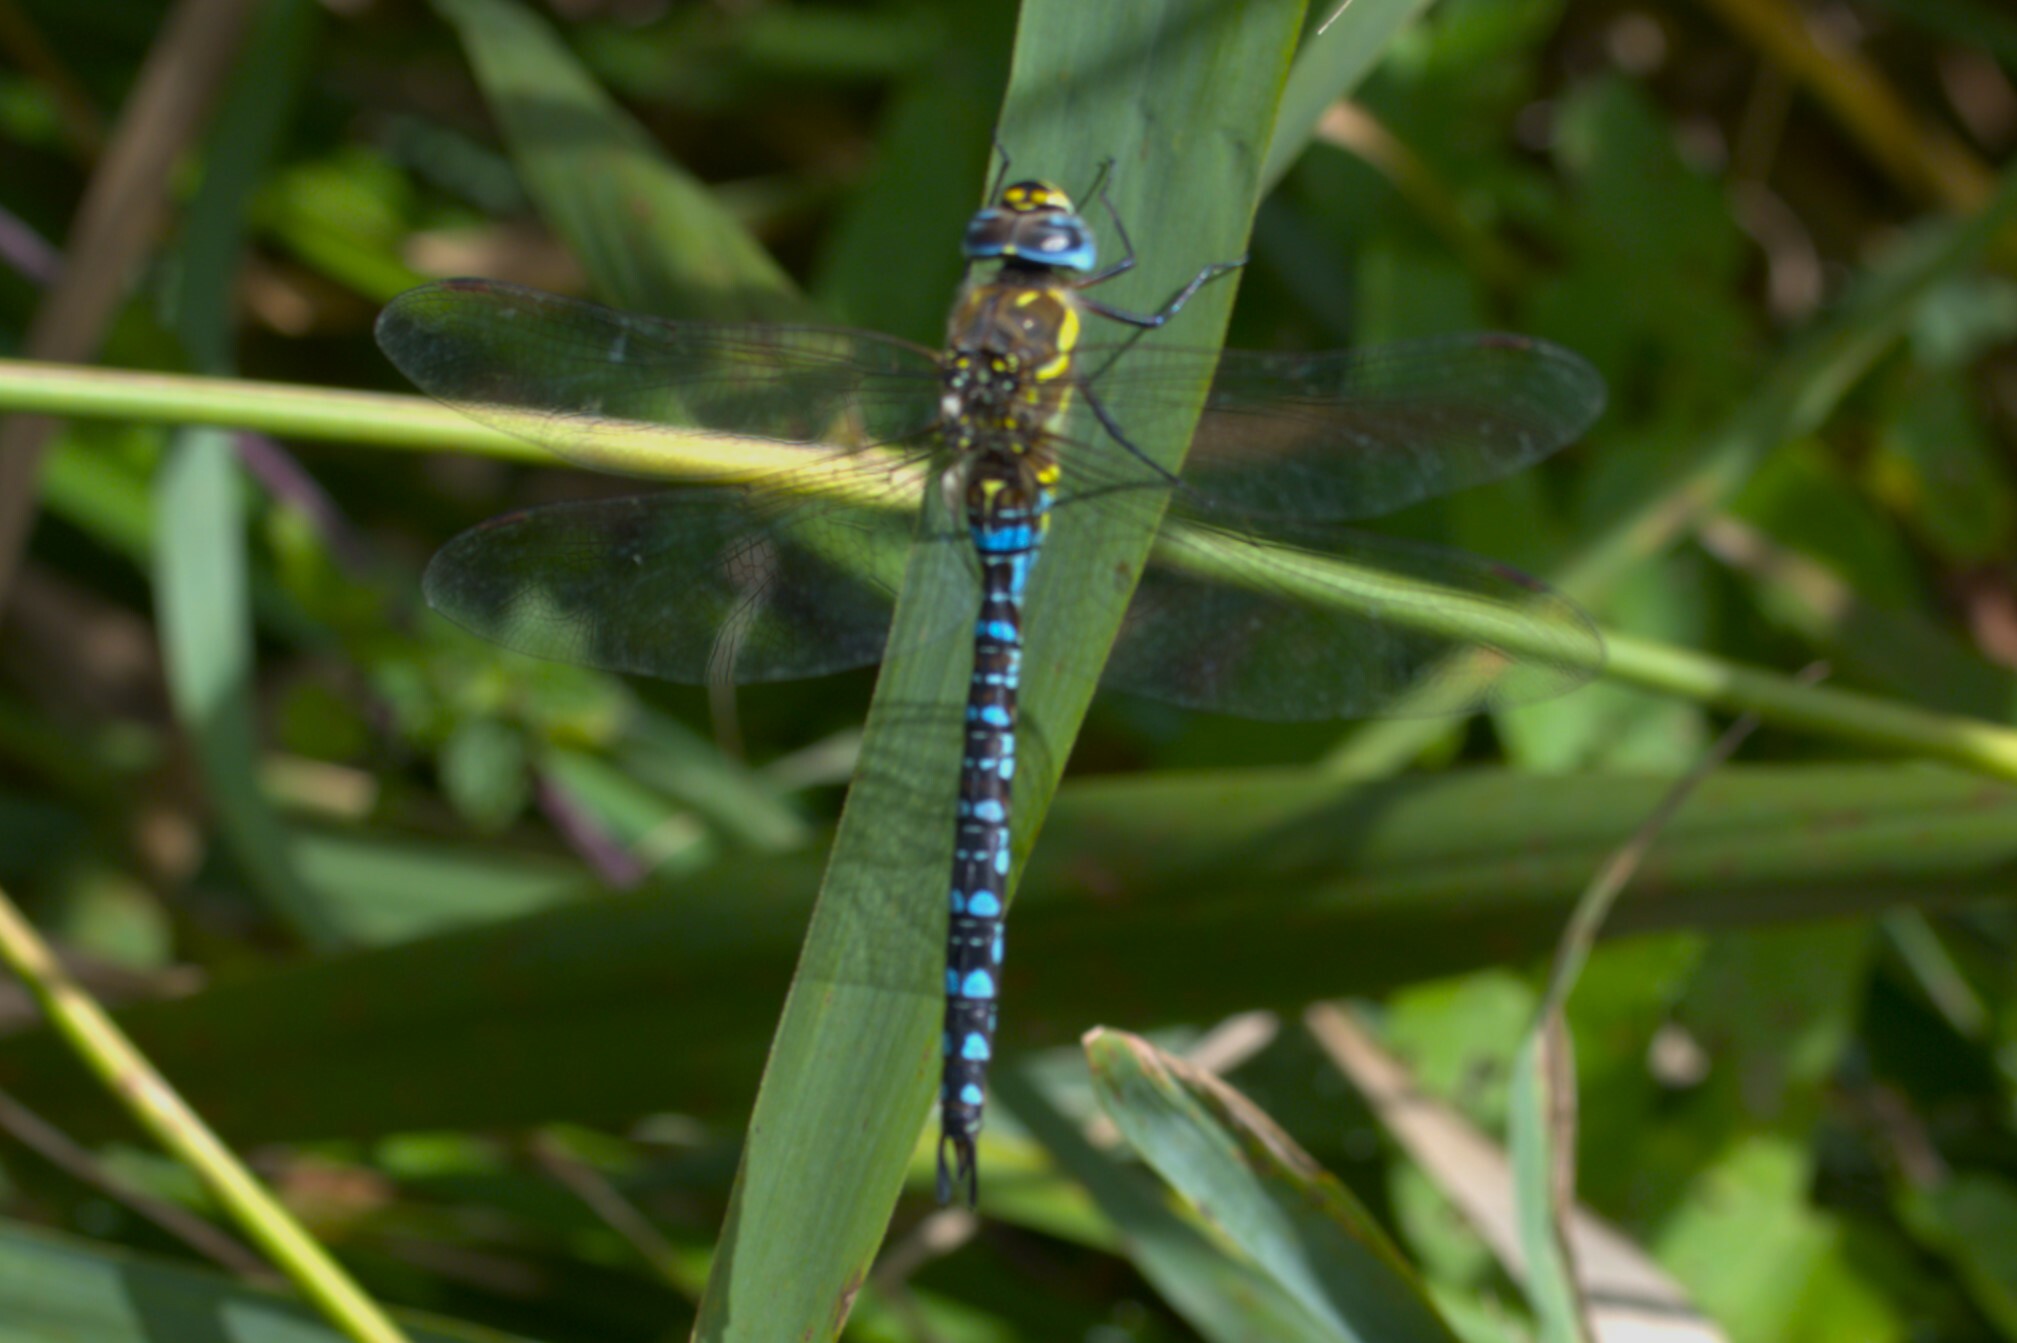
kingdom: Animalia
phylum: Arthropoda
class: Insecta
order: Odonata
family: Aeshnidae
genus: Aeshna
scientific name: Aeshna mixta
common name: Migrant hawker
